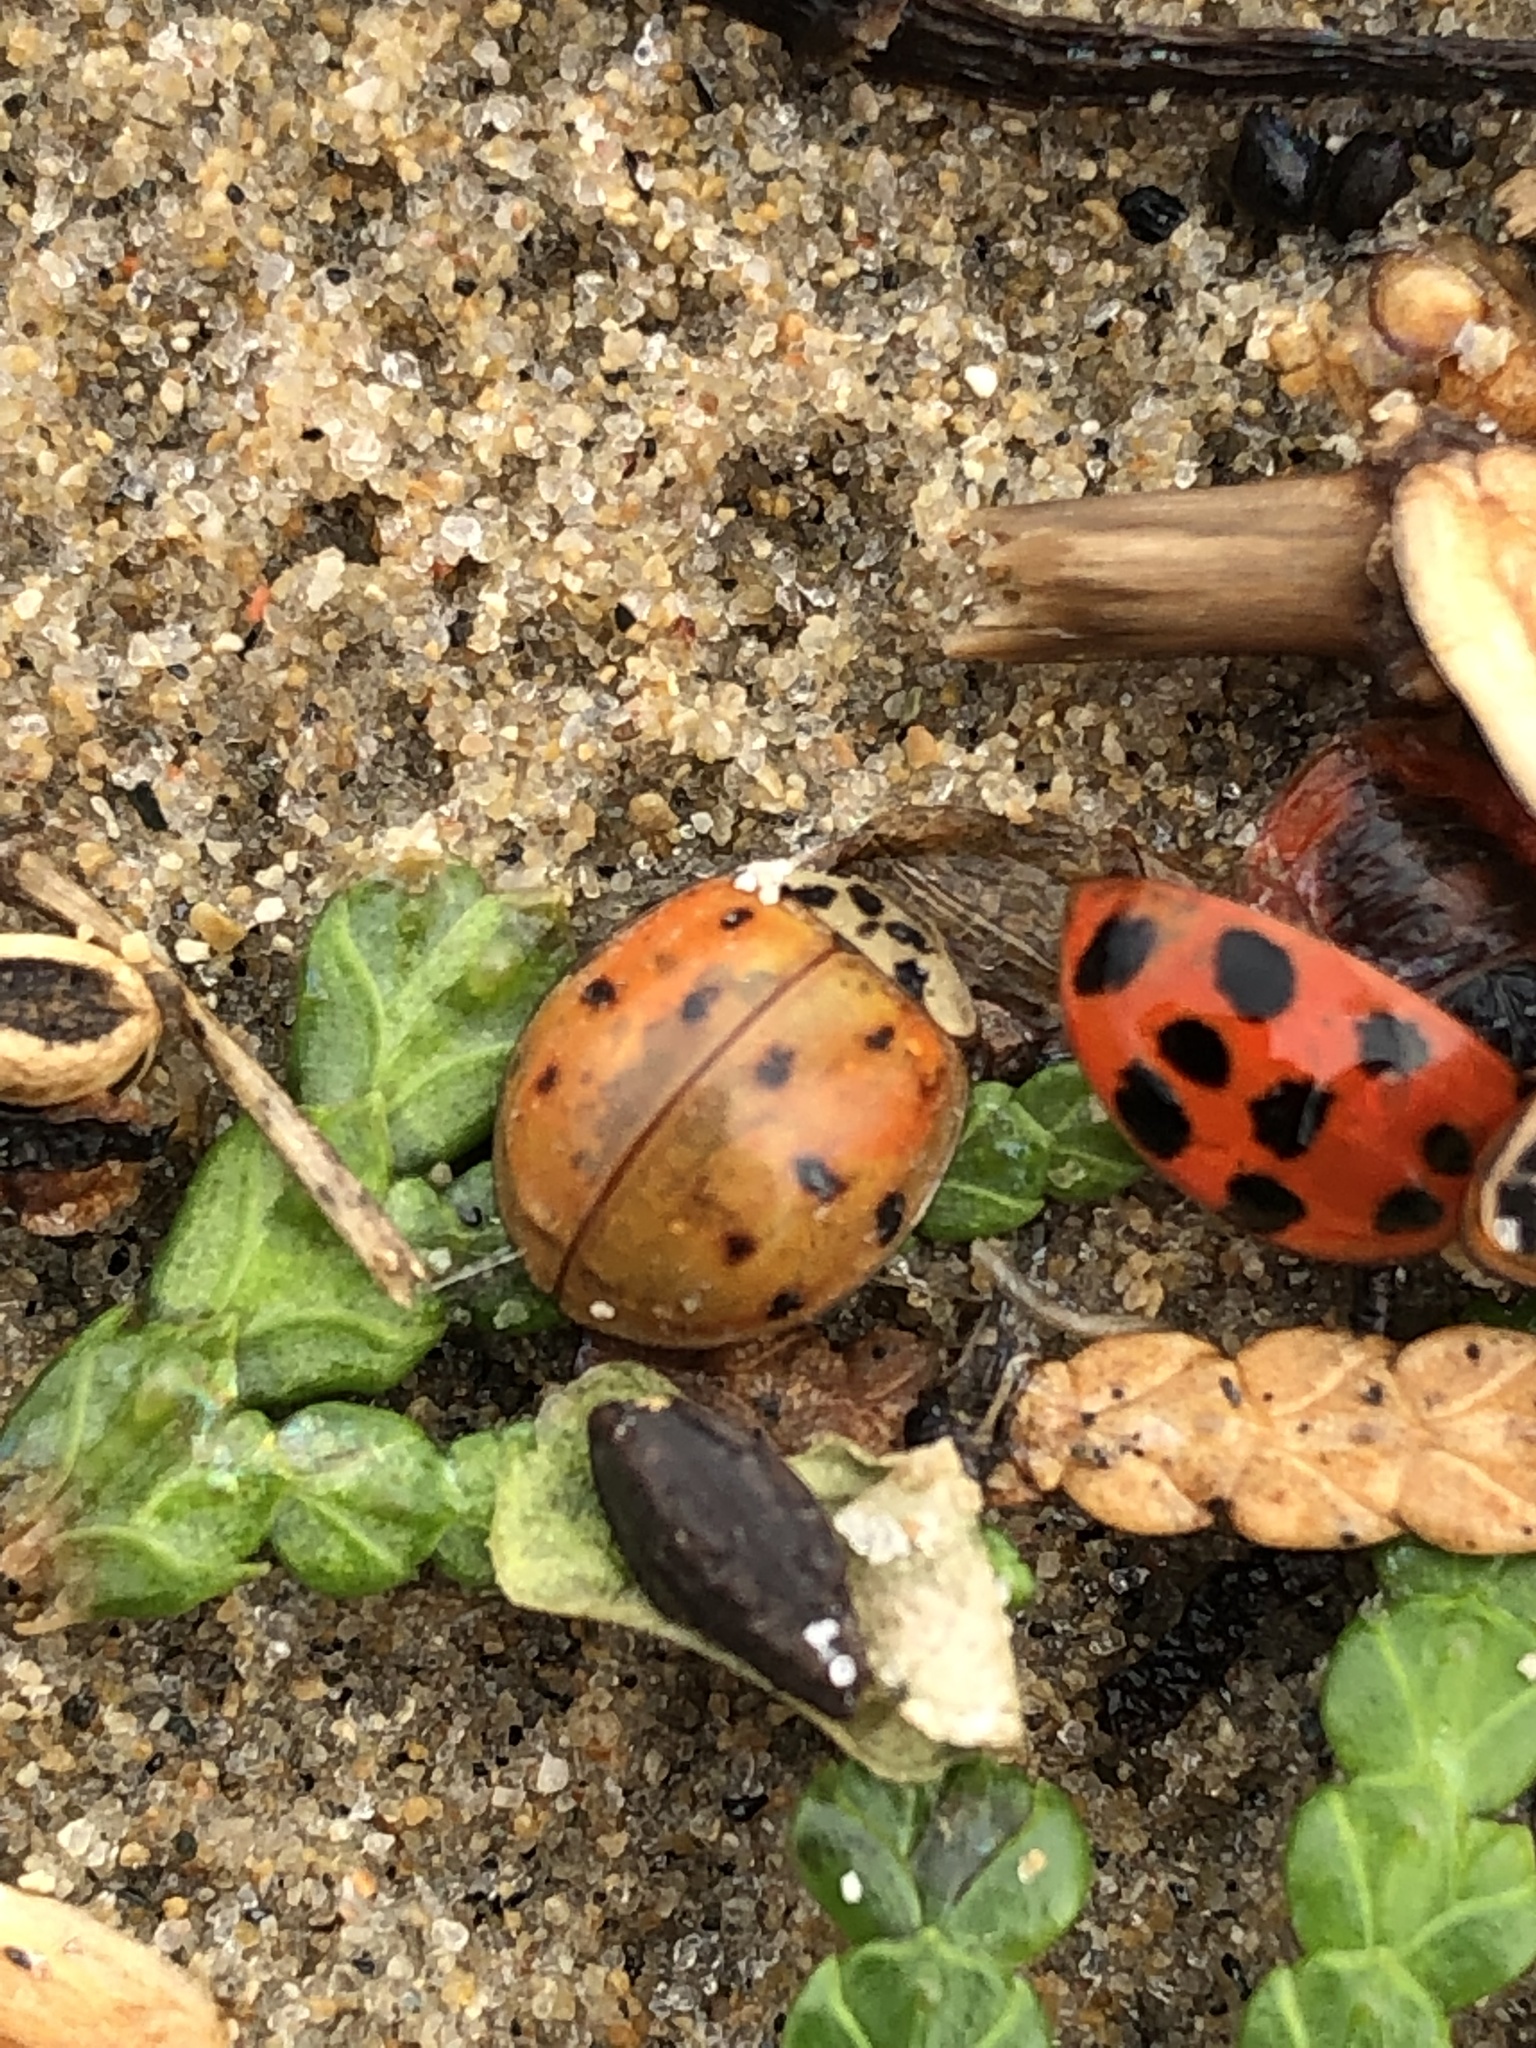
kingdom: Animalia
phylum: Arthropoda
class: Insecta
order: Coleoptera
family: Coccinellidae
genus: Harmonia
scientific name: Harmonia axyridis
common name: Harlequin ladybird
